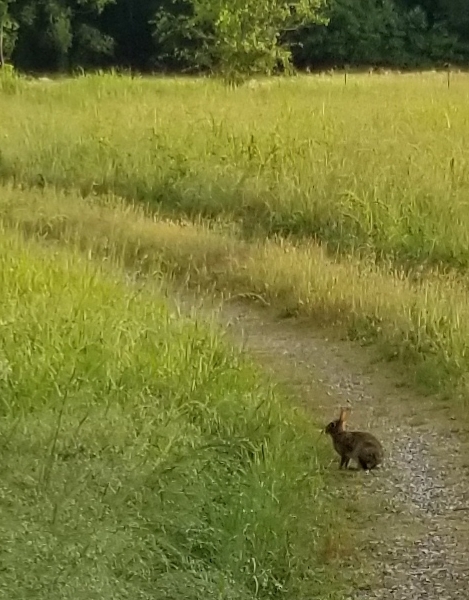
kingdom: Animalia
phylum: Chordata
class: Mammalia
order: Lagomorpha
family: Leporidae
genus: Sylvilagus
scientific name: Sylvilagus floridanus
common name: Eastern cottontail
